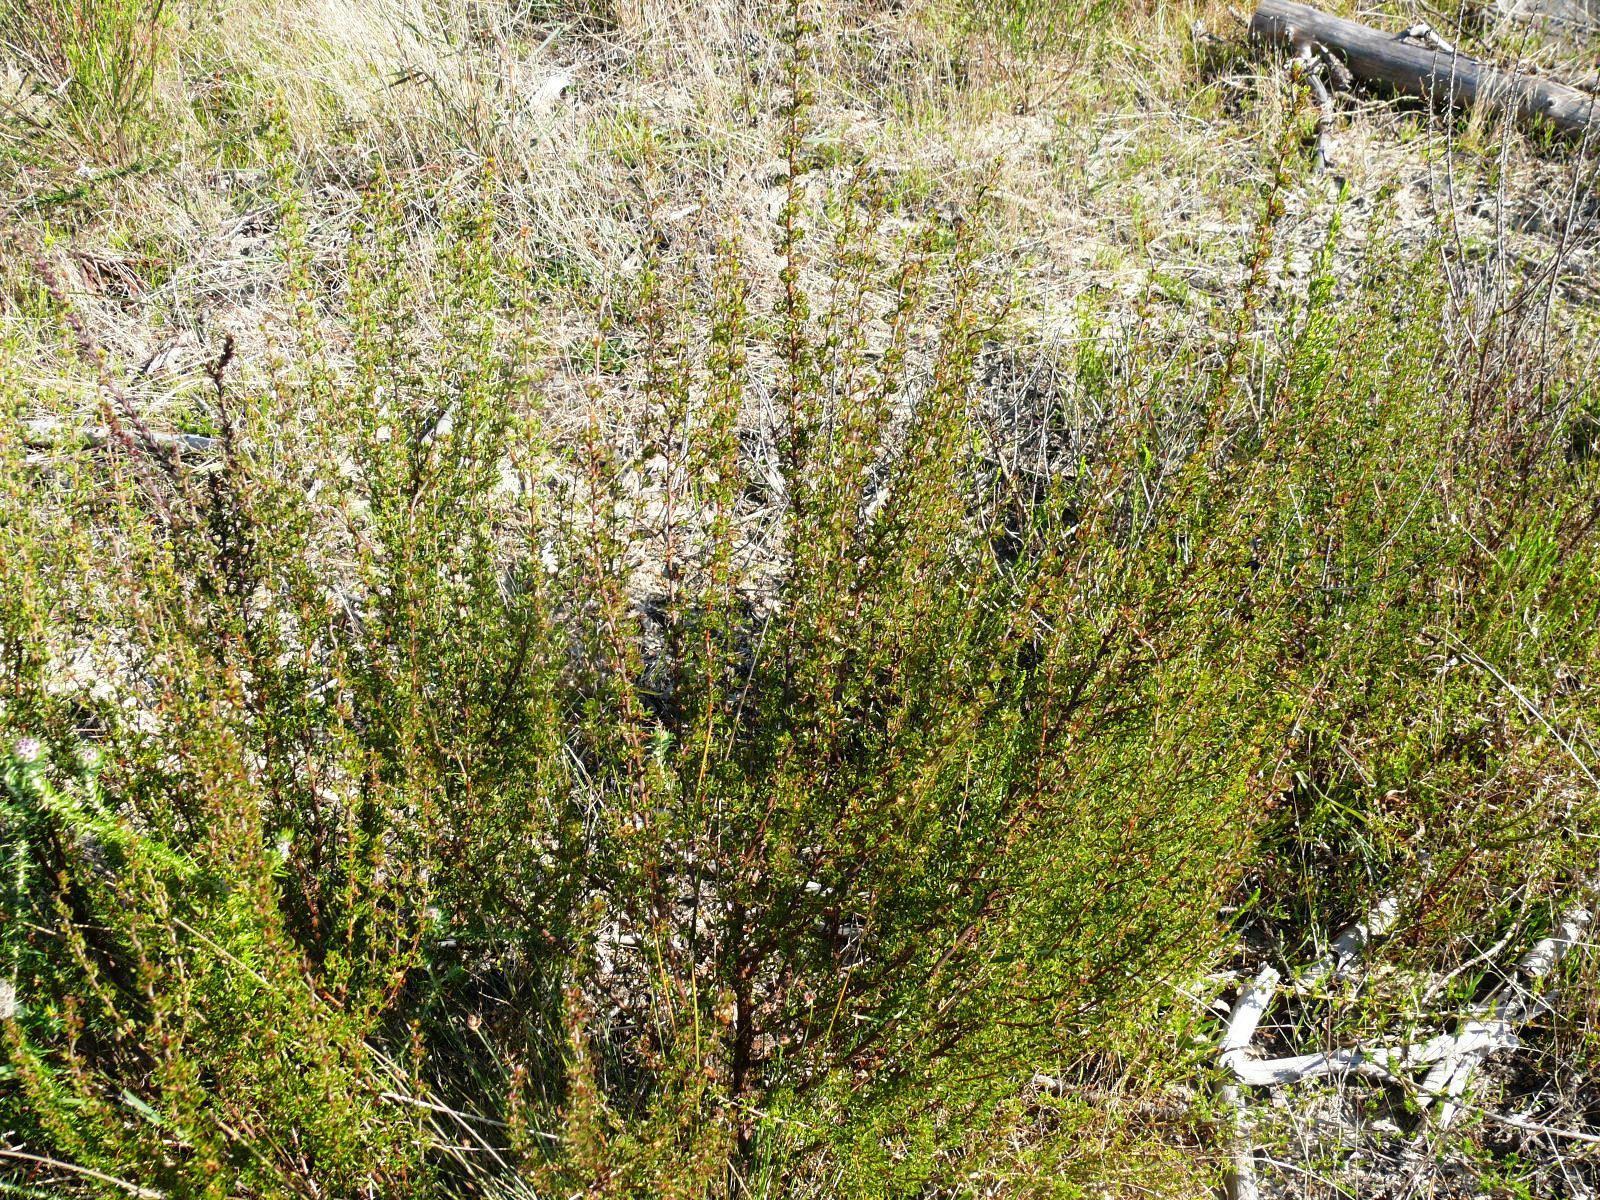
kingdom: Plantae
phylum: Tracheophyta
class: Magnoliopsida
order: Rosales
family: Rosaceae
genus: Cliffortia
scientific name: Cliffortia falcata
